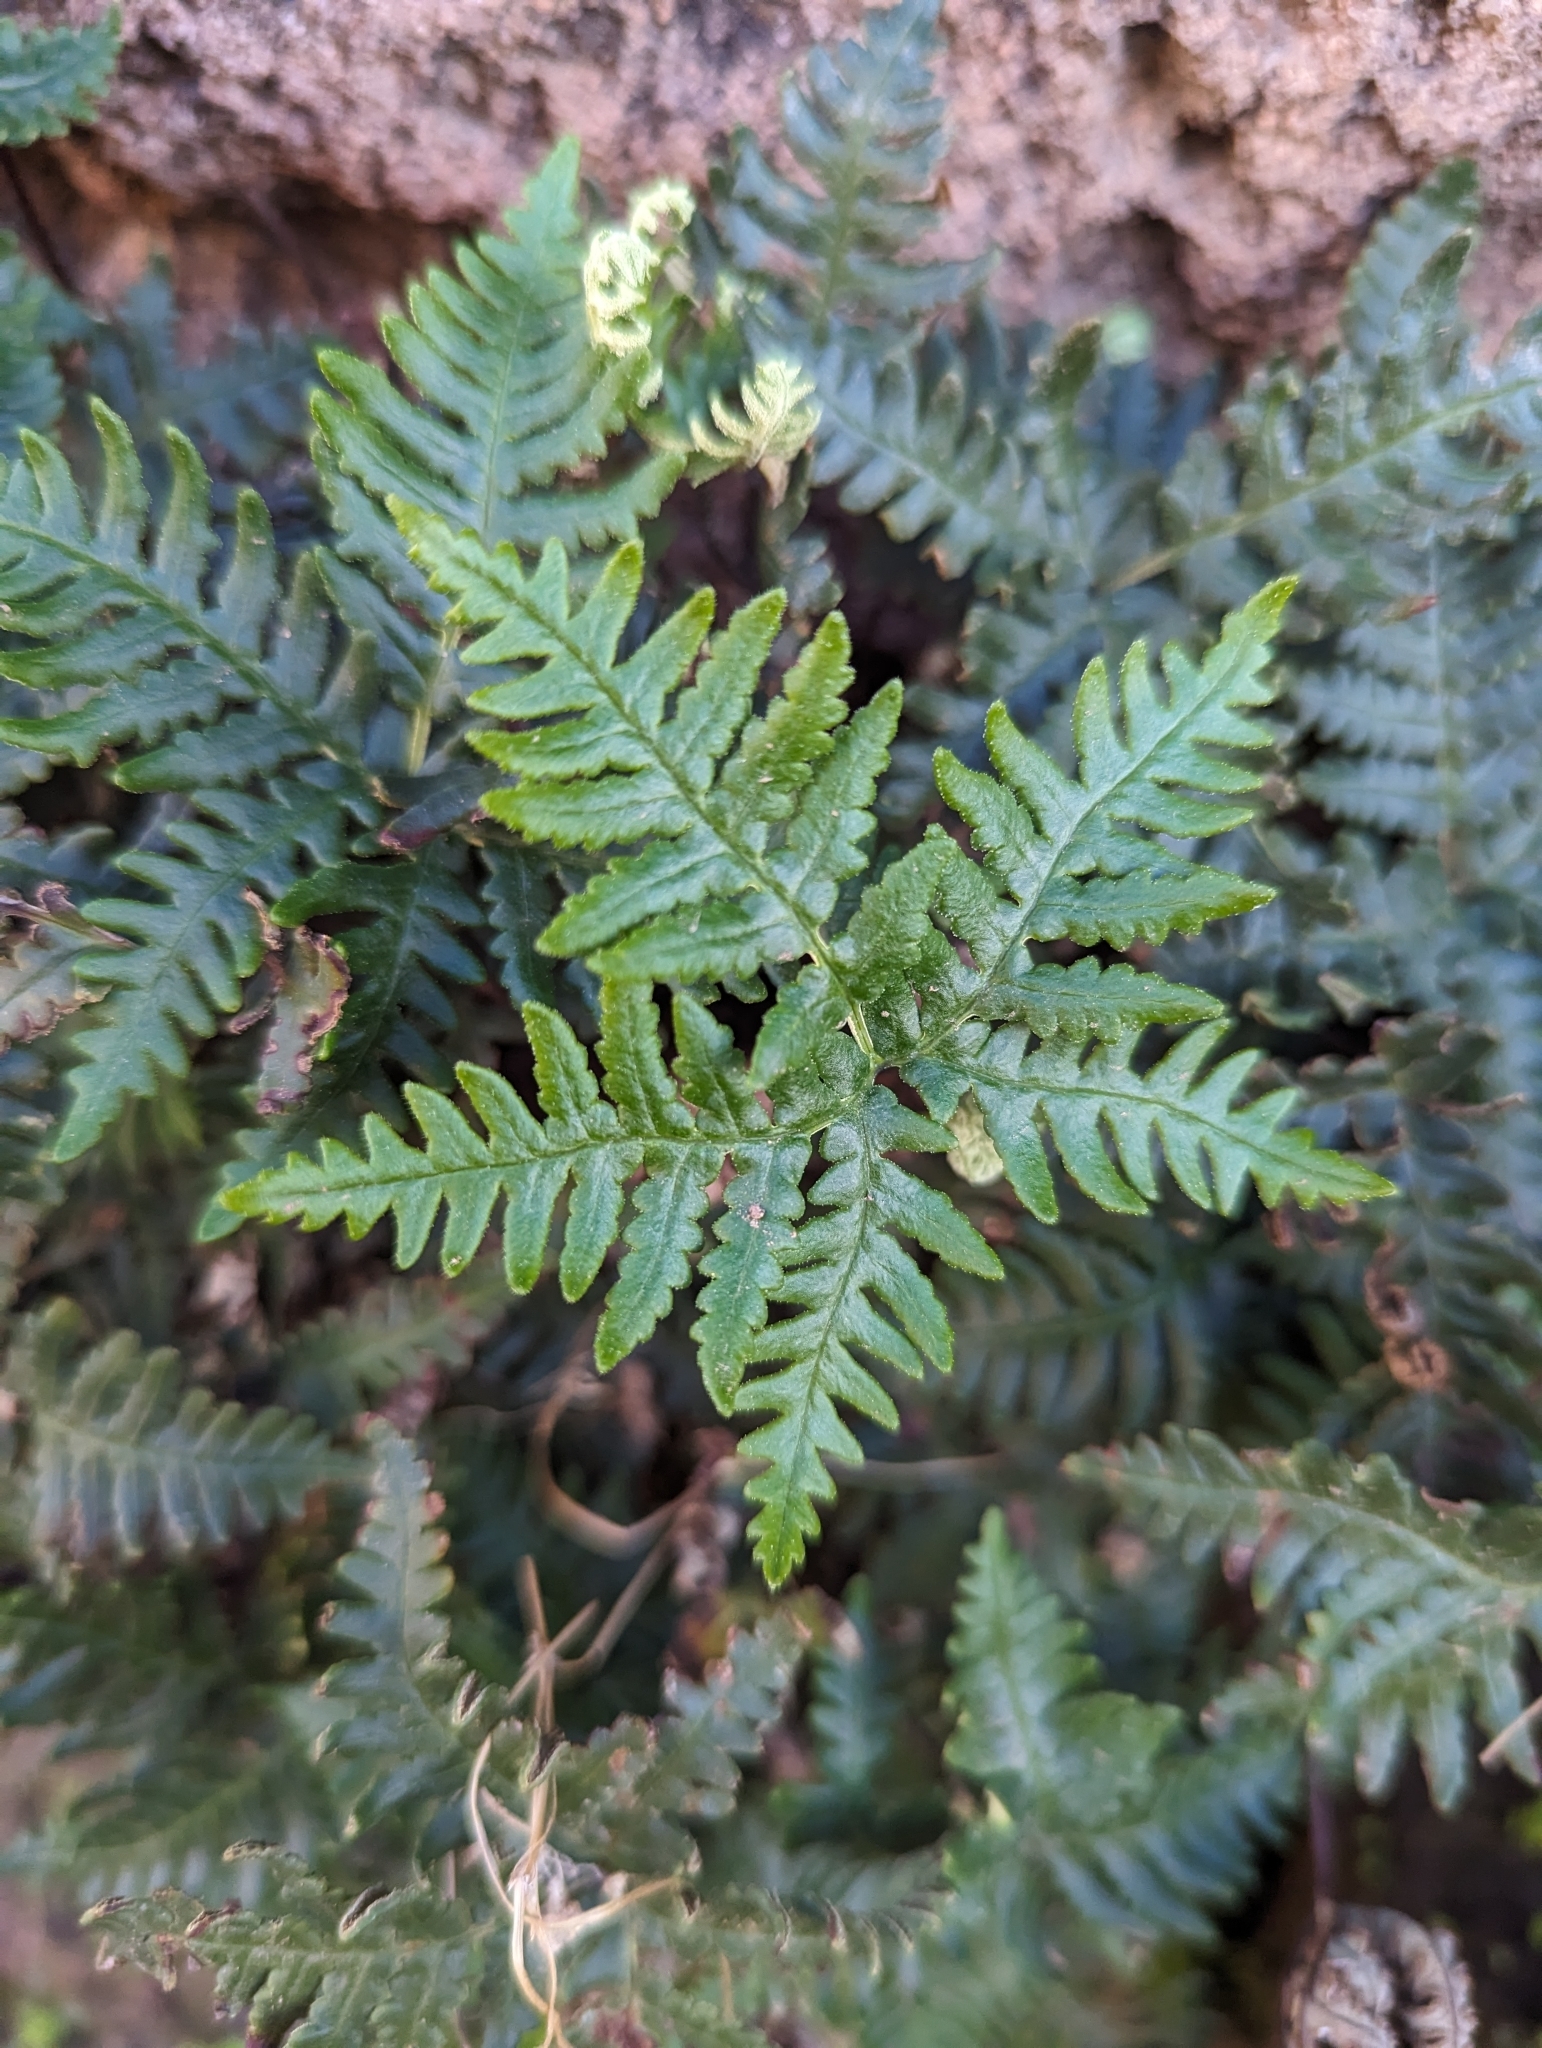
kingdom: Plantae
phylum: Tracheophyta
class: Polypodiopsida
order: Polypodiales
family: Pteridaceae
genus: Notholaena
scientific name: Notholaena standleyi
